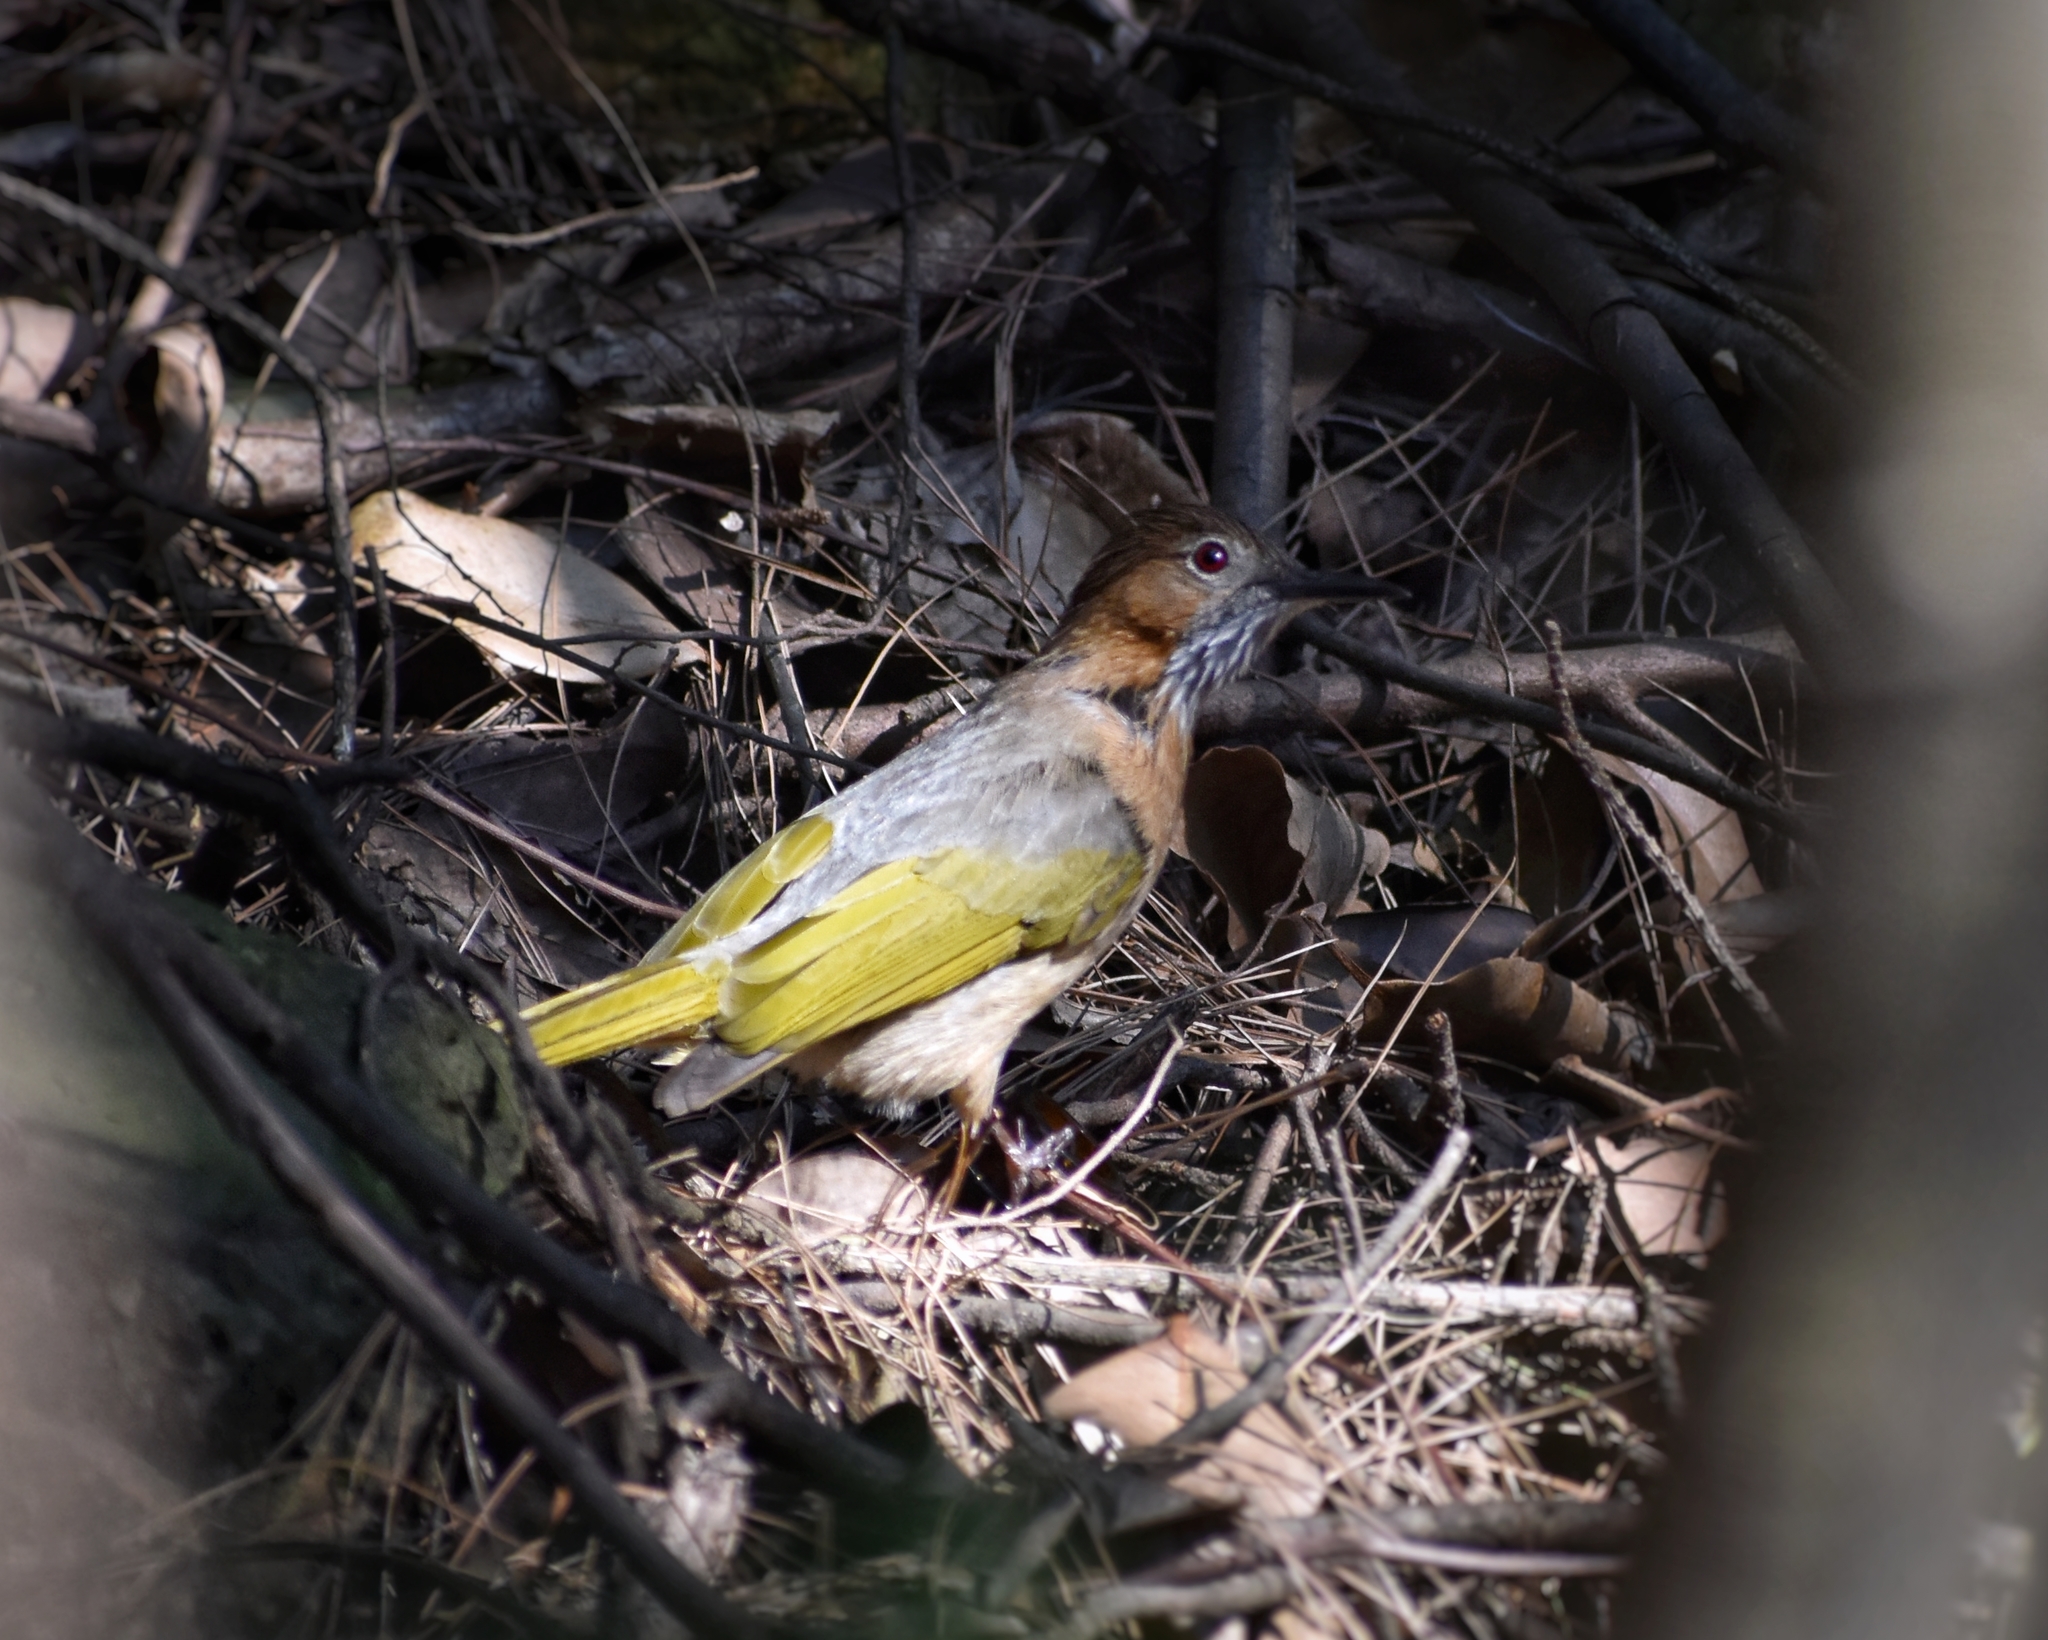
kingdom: Animalia
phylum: Chordata
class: Aves
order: Passeriformes
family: Pycnonotidae
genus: Ixos
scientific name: Ixos mcclellandii
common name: Mountain bulbul
